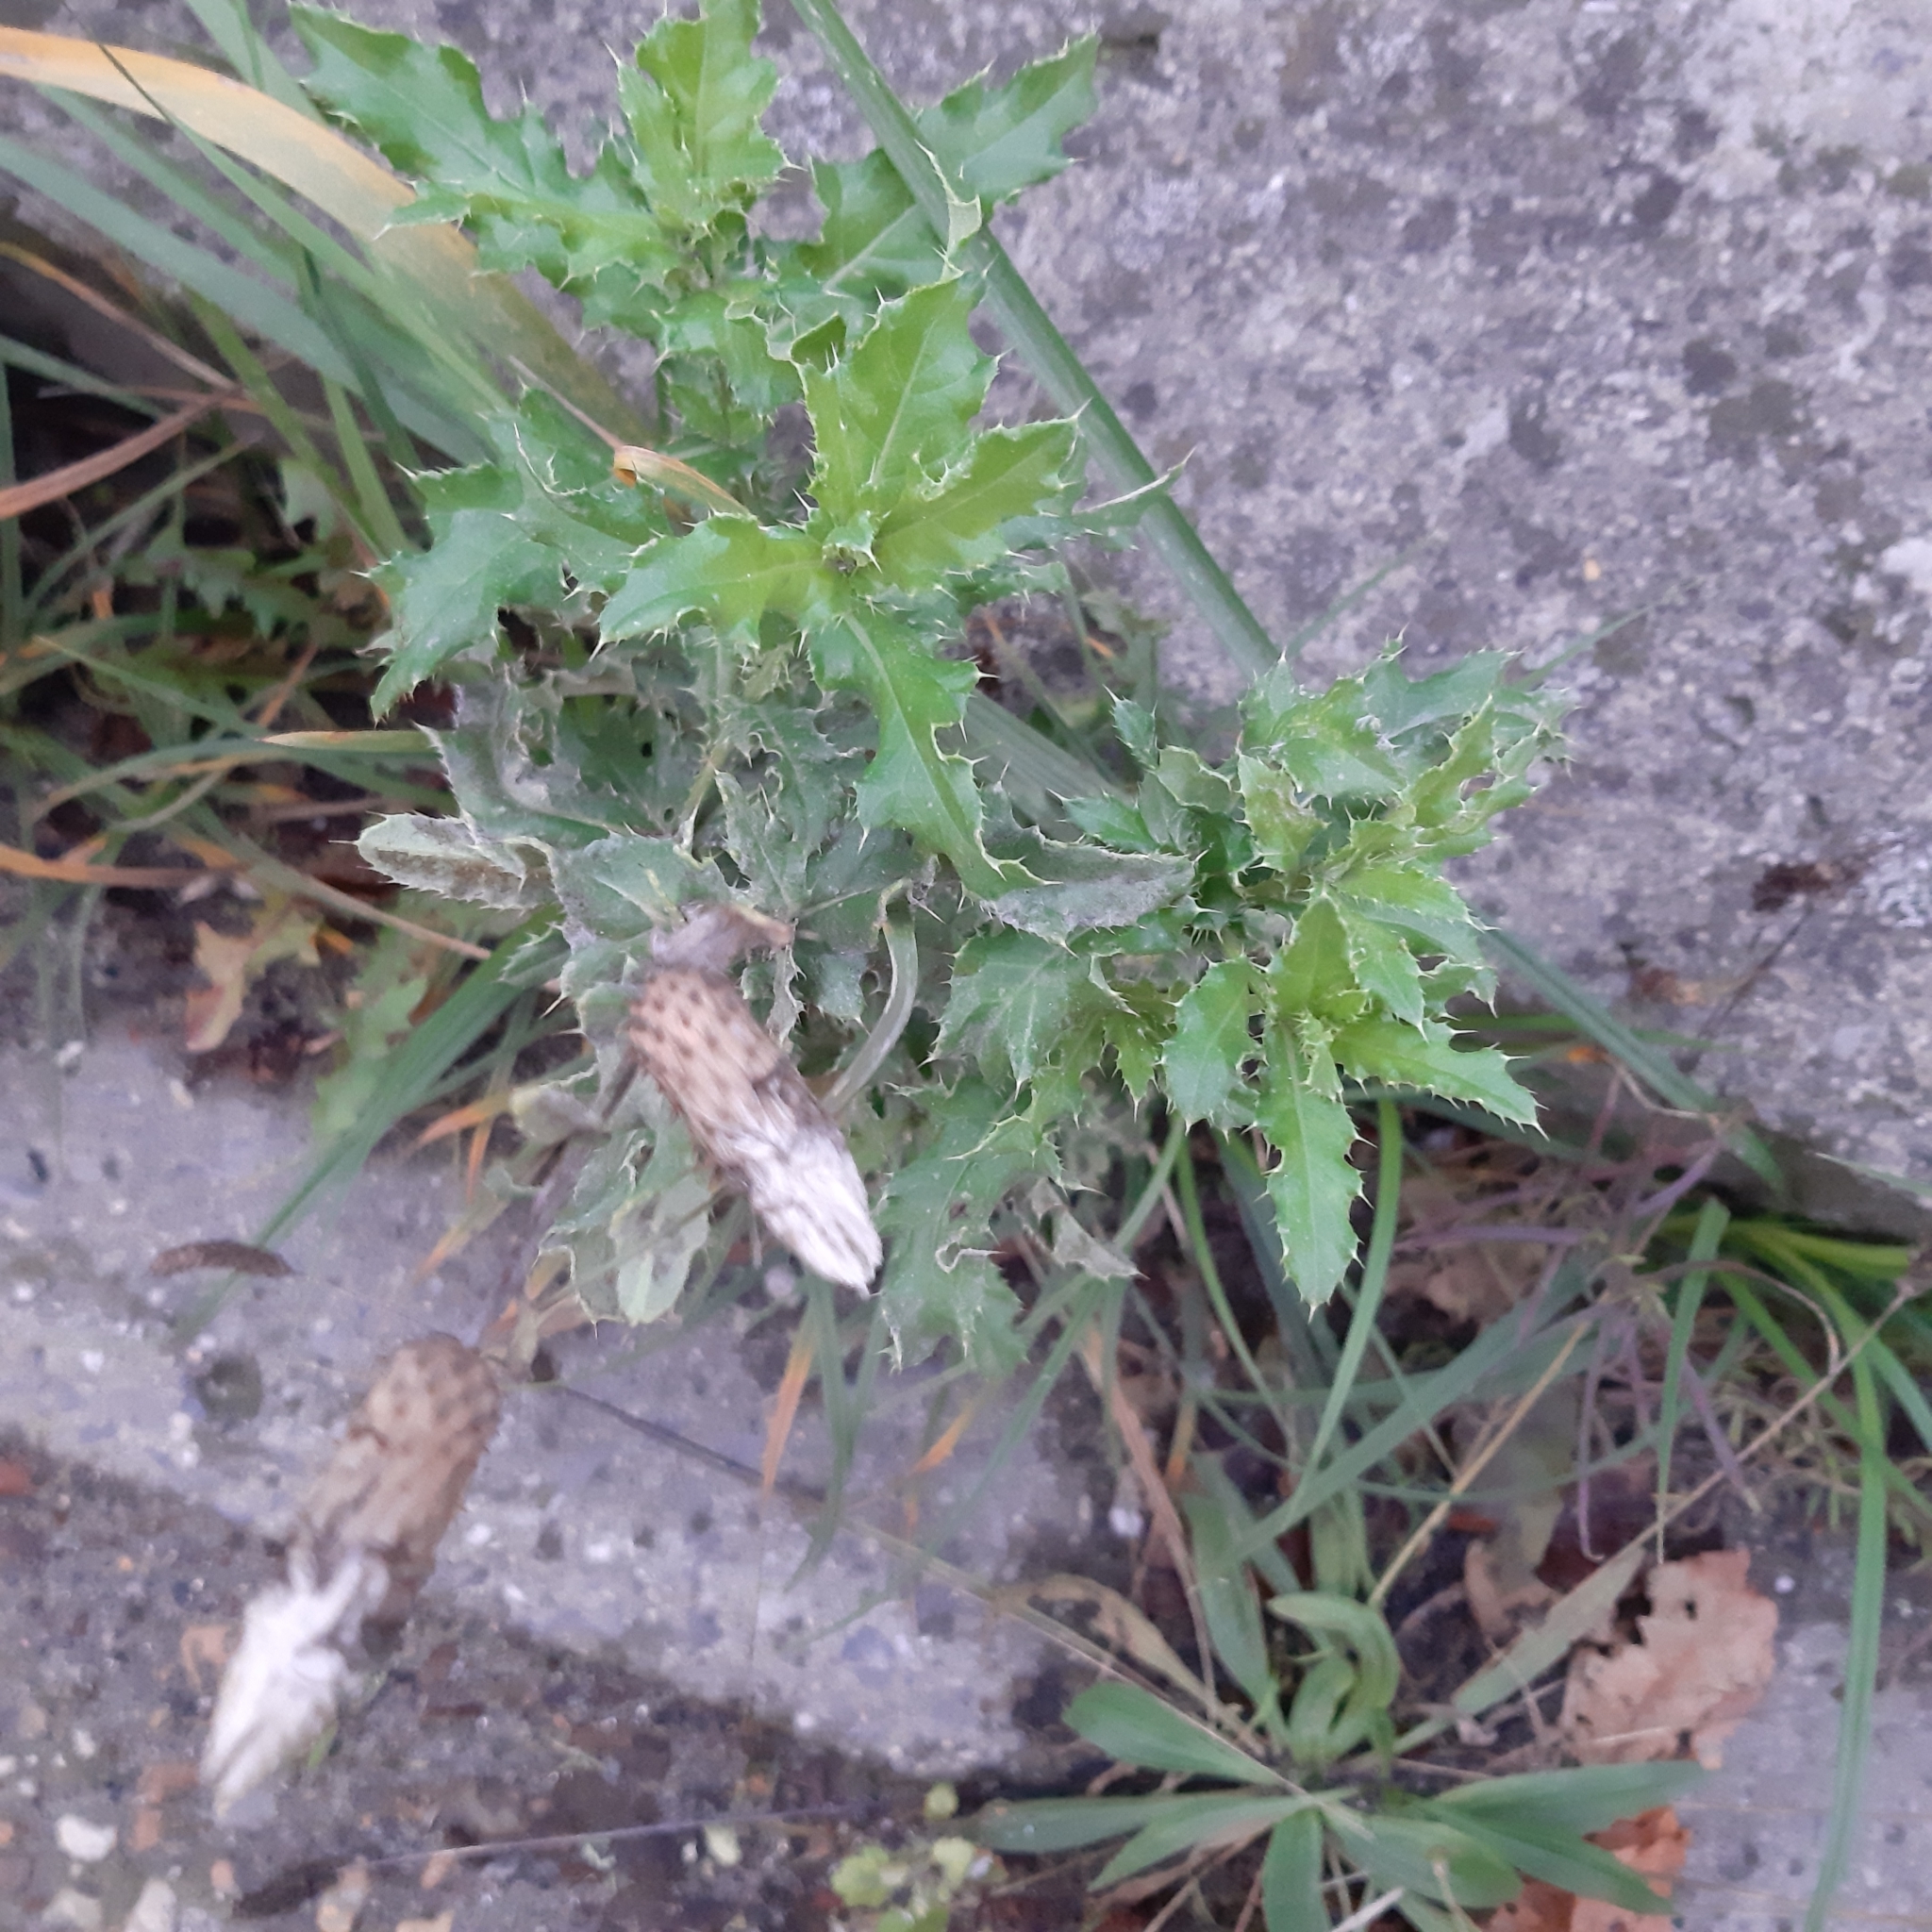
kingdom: Plantae
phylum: Tracheophyta
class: Magnoliopsida
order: Asterales
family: Asteraceae
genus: Cirsium
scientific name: Cirsium arvense
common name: Creeping thistle
